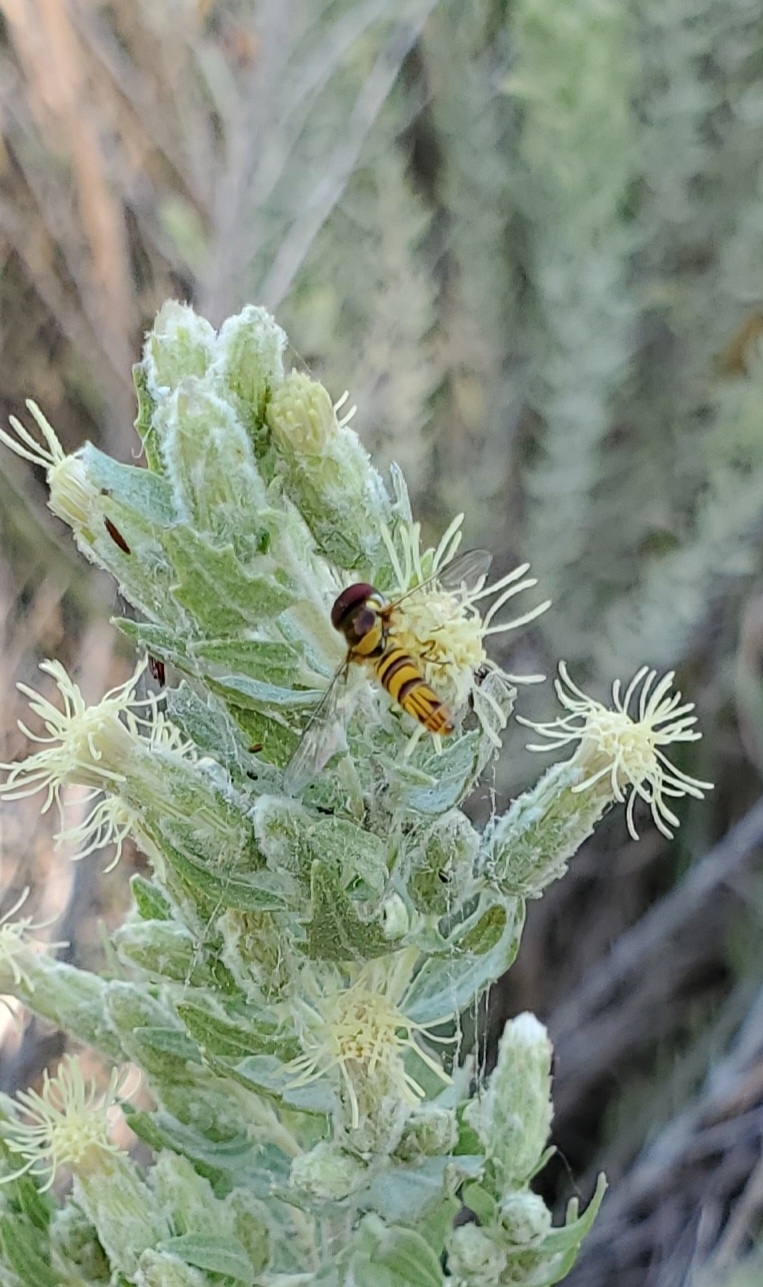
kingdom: Animalia
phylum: Arthropoda
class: Insecta
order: Diptera
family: Syrphidae
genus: Allograpta
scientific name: Allograpta obliqua
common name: Common oblique syrphid
